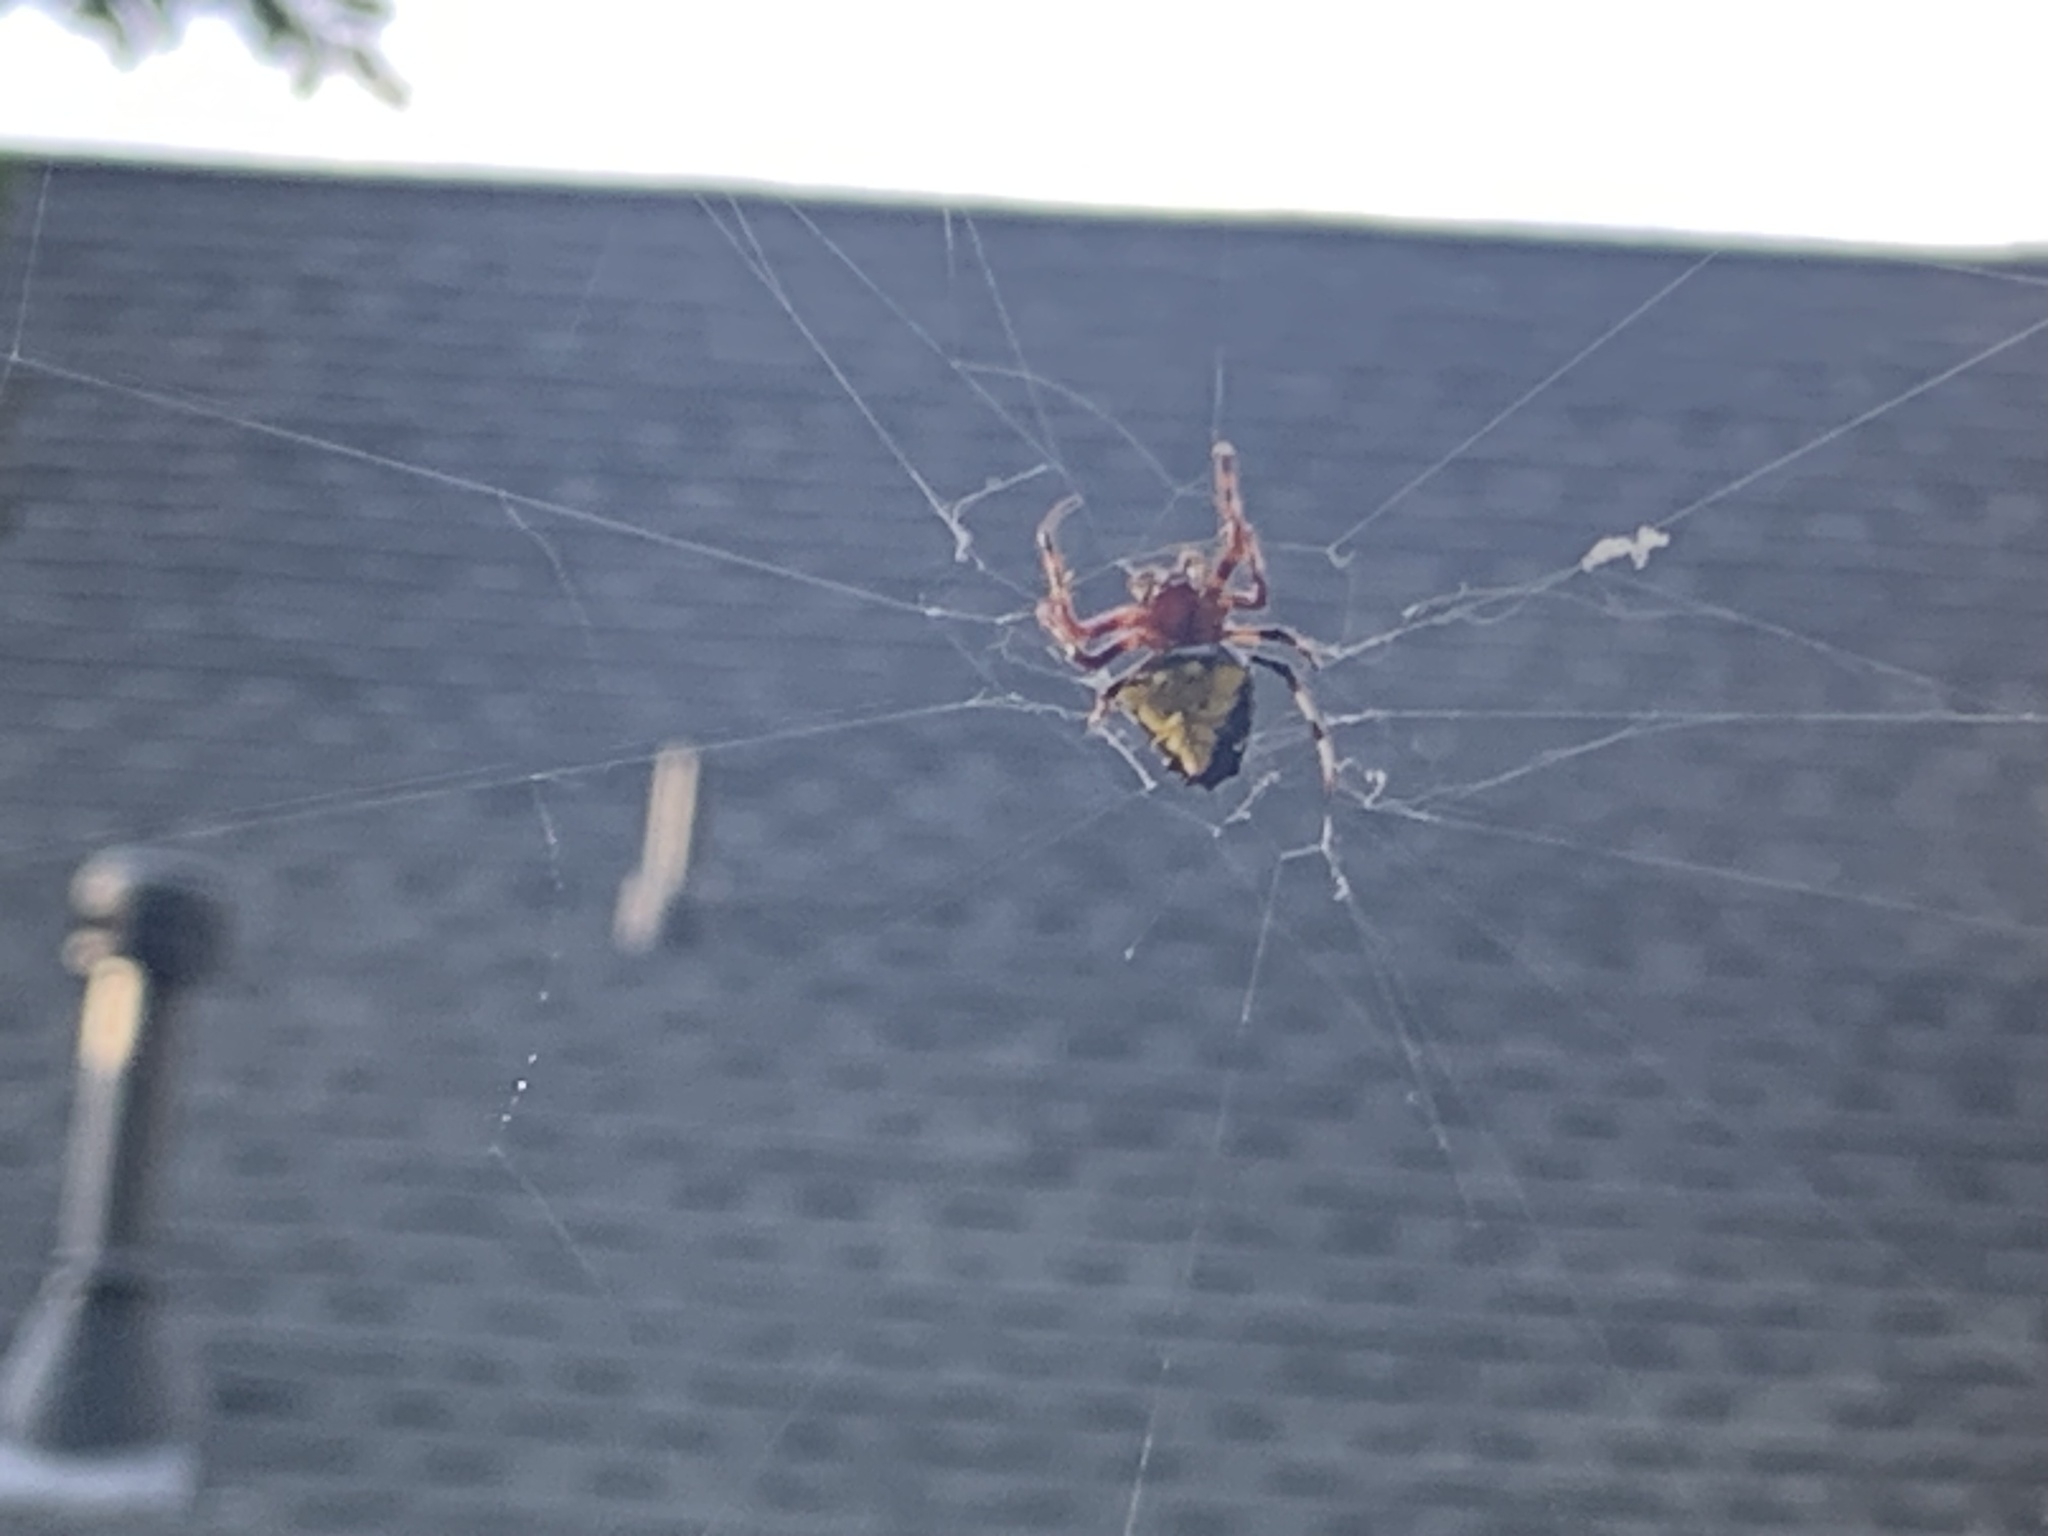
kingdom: Animalia
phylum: Arthropoda
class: Arachnida
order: Araneae
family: Araneidae
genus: Verrucosa
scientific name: Verrucosa arenata
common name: Orb weavers
